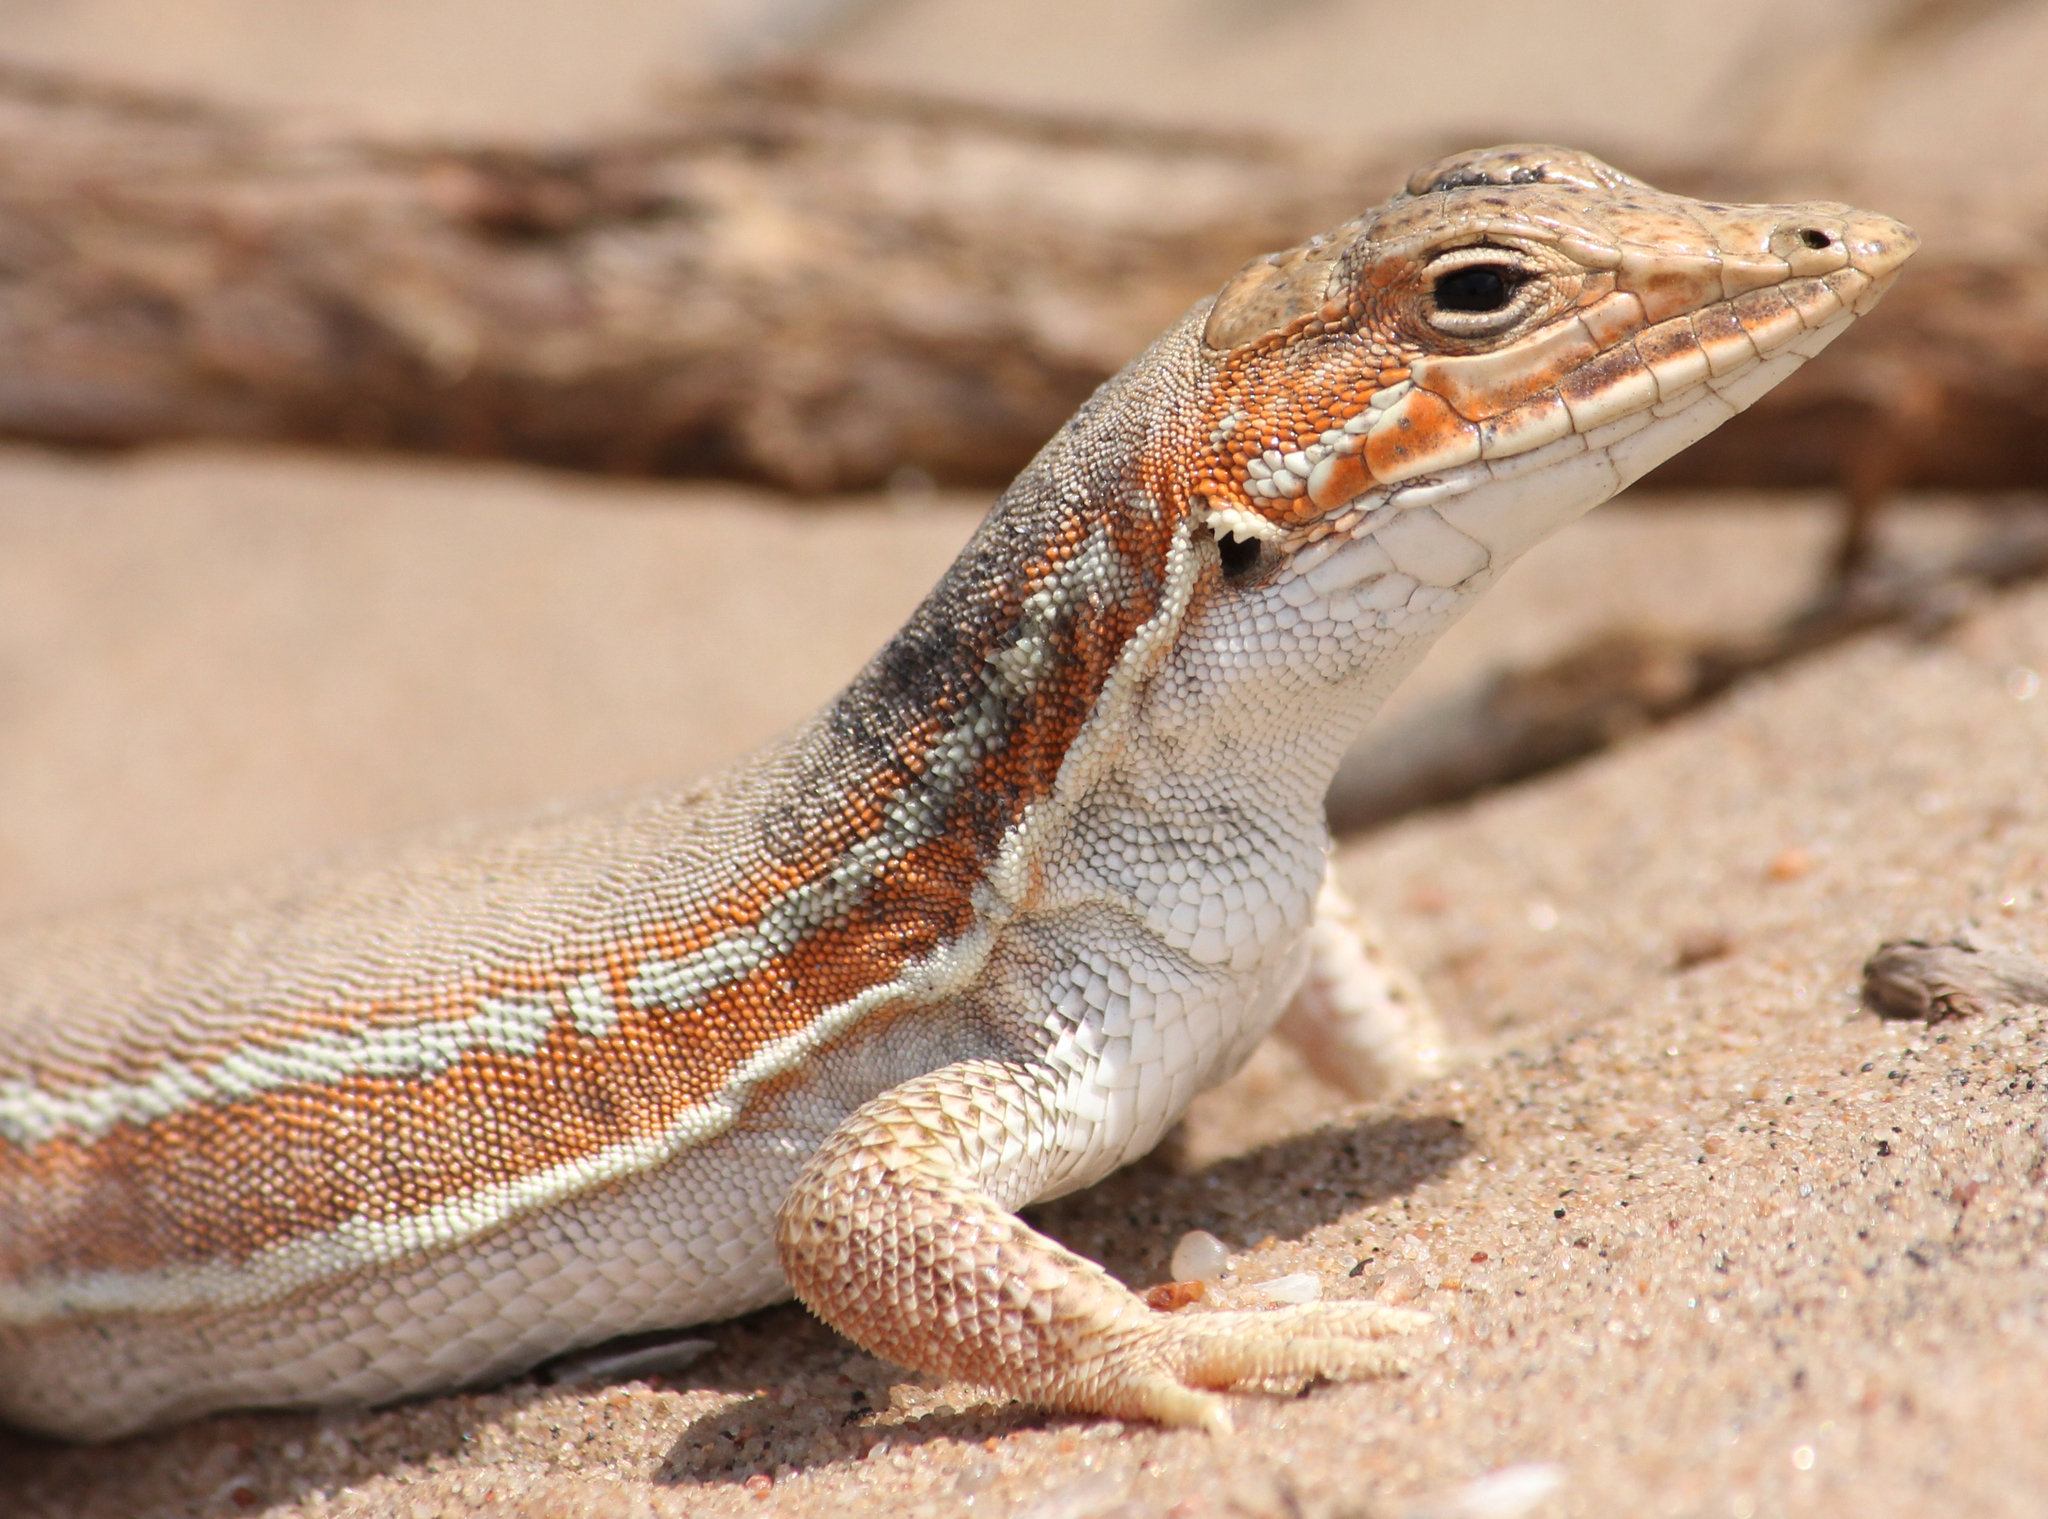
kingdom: Animalia
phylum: Chordata
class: Squamata
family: Lacertidae
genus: Meroles
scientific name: Meroles ctenodactylus
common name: Giant desert lizard
